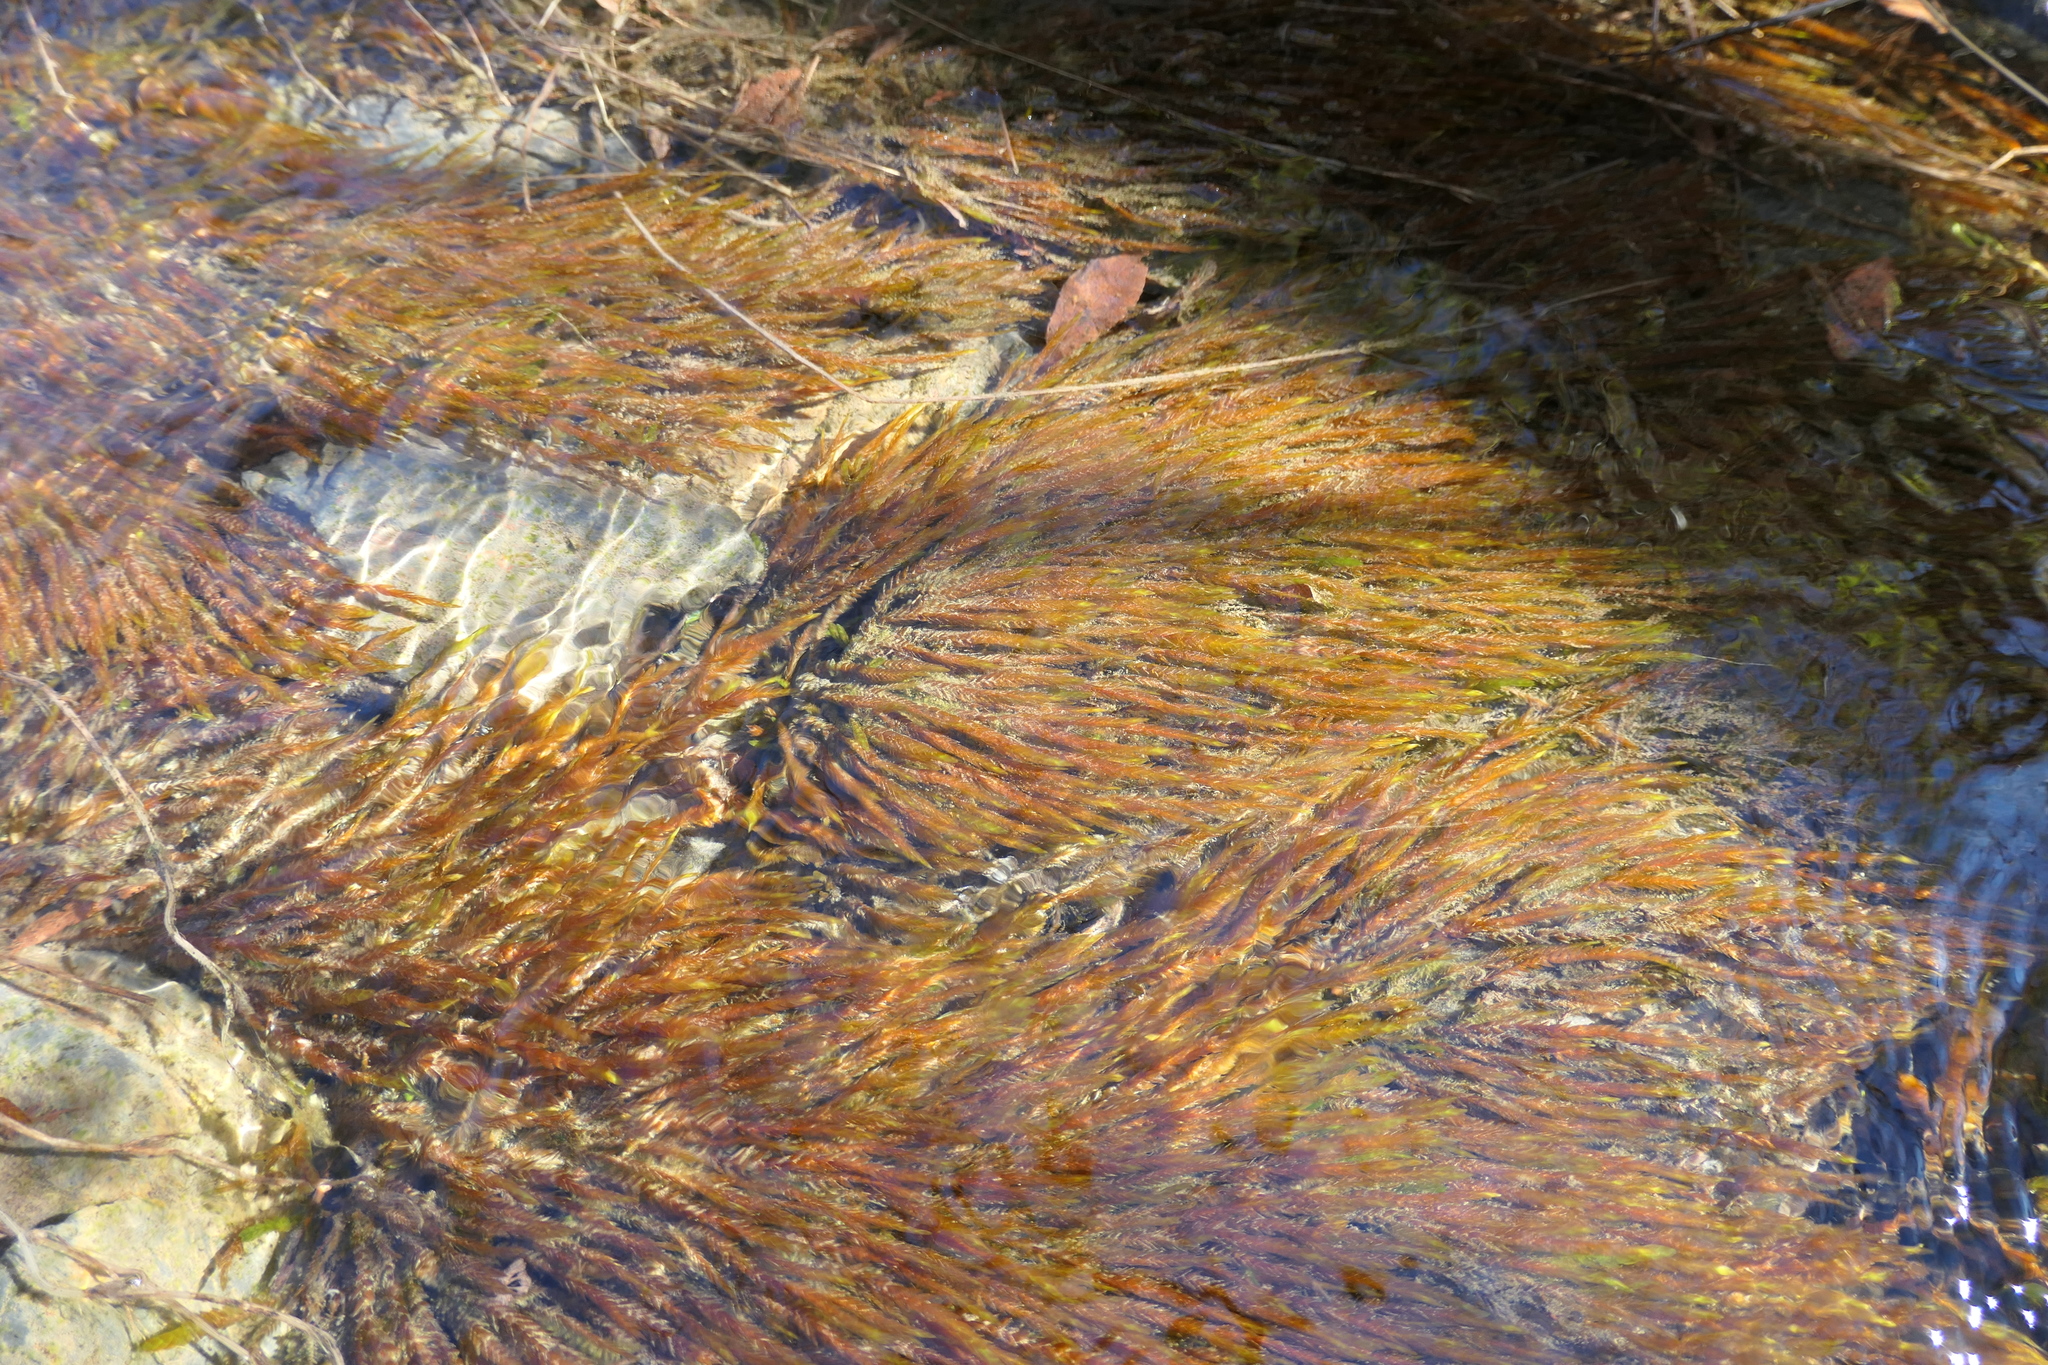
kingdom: Plantae
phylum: Bryophyta
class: Bryopsida
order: Hypnales
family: Fontinalaceae
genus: Fontinalis
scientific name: Fontinalis antipyretica
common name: Greater water-moss
